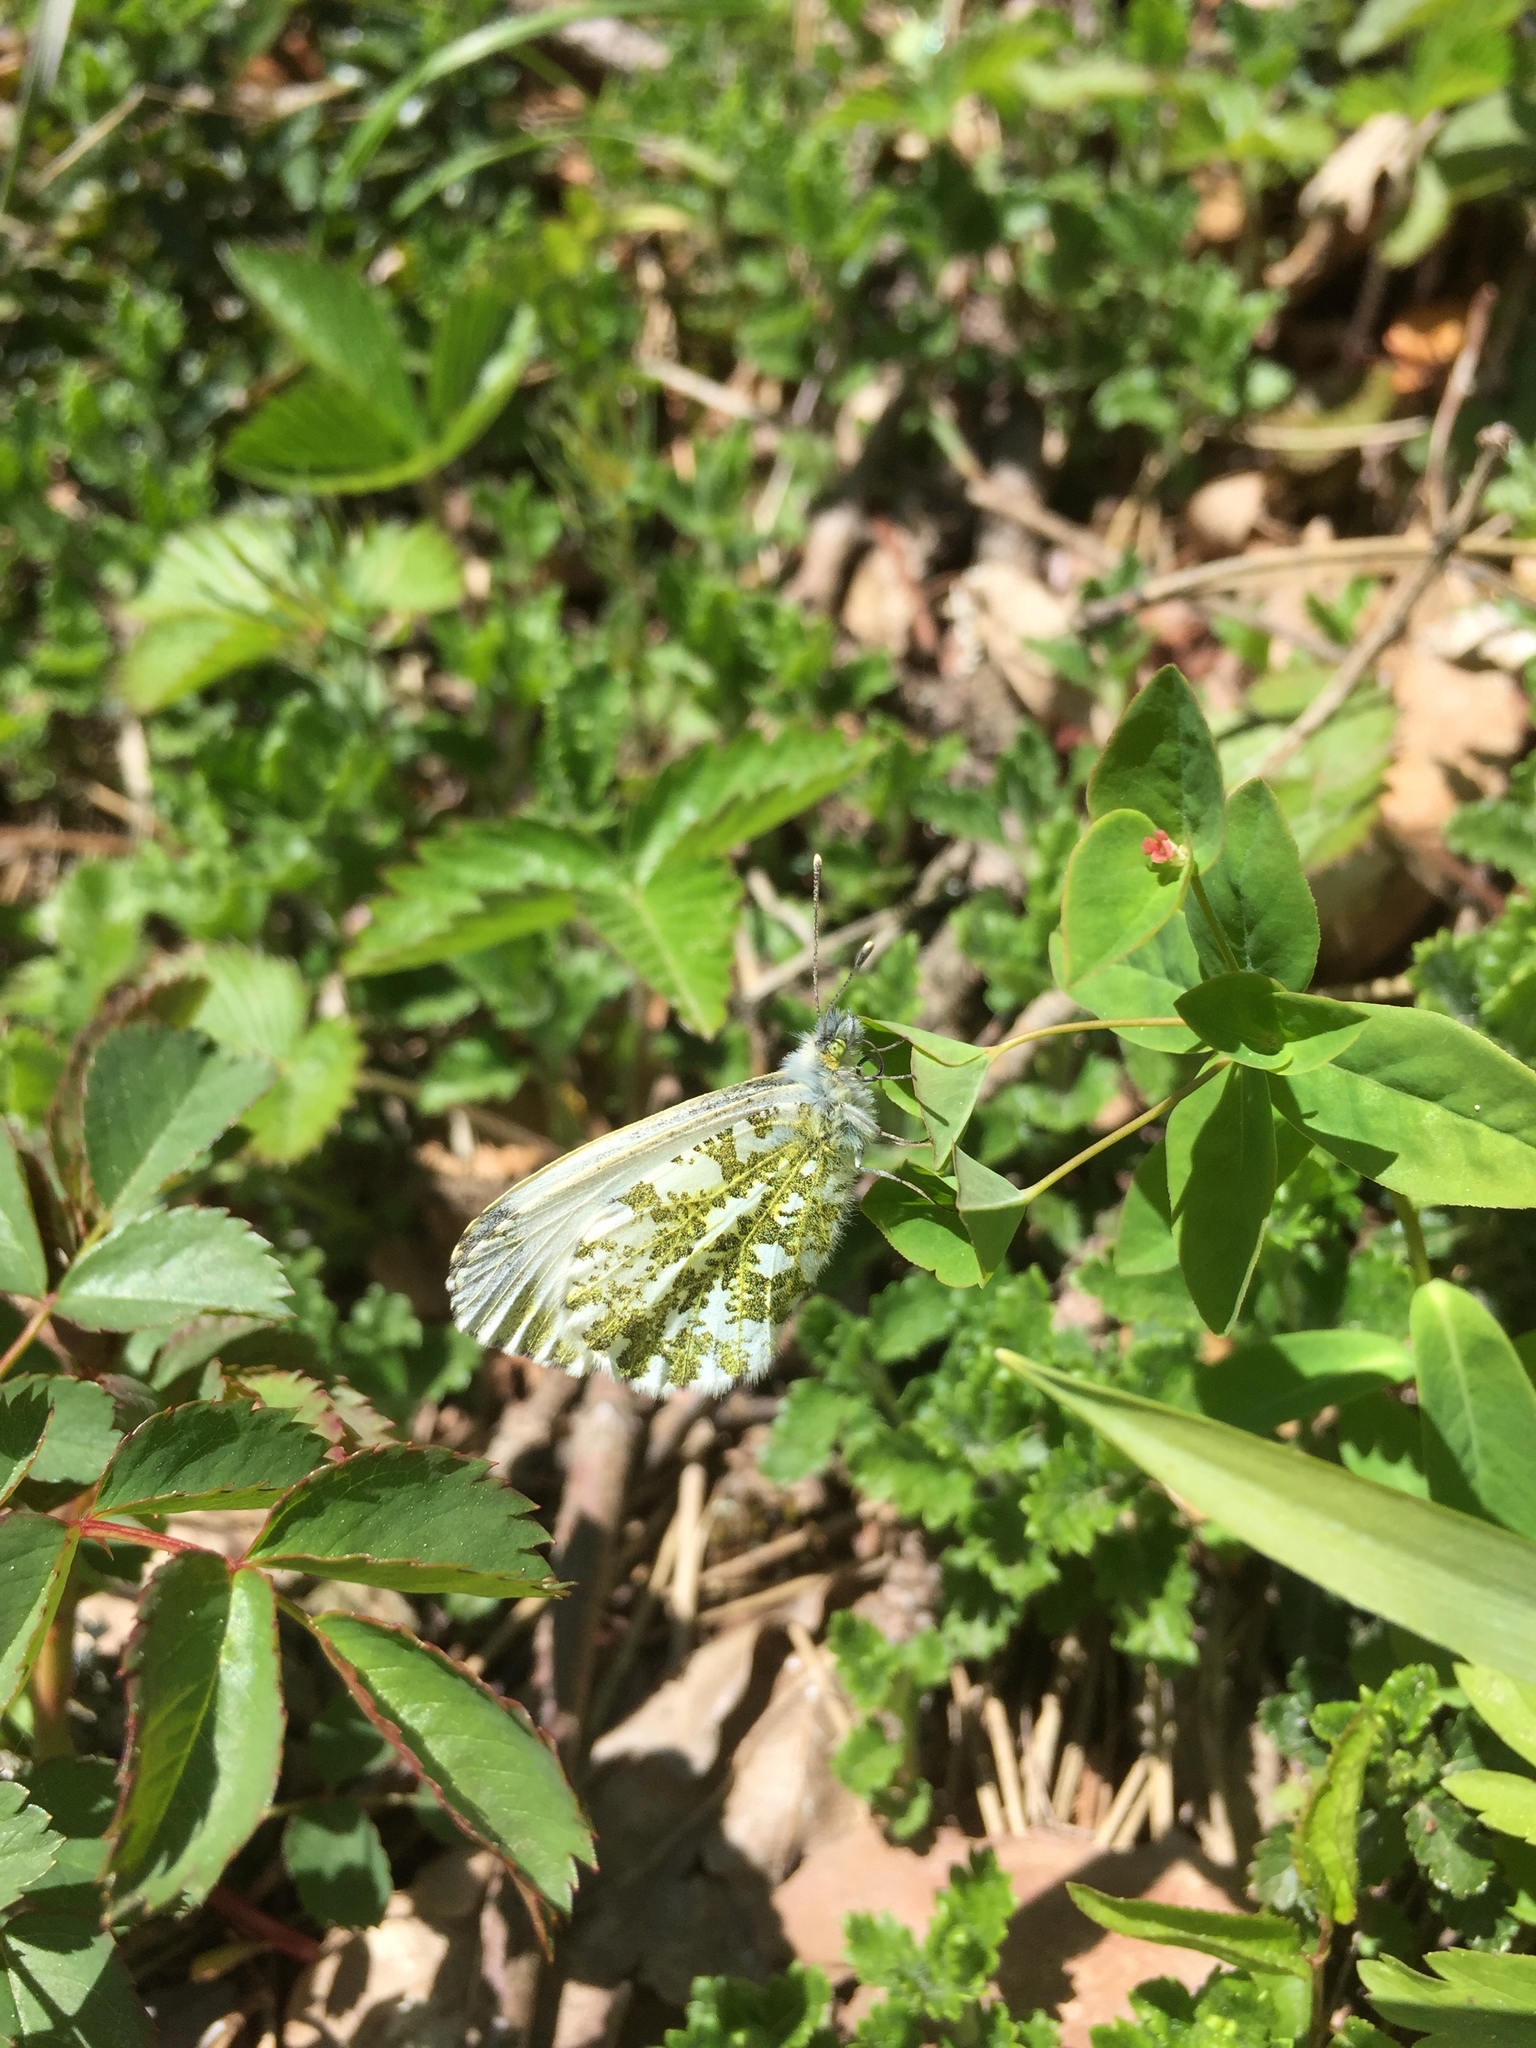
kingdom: Animalia
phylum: Arthropoda
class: Insecta
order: Lepidoptera
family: Pieridae
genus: Anthocharis
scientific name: Anthocharis cardamines
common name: Orange-tip
